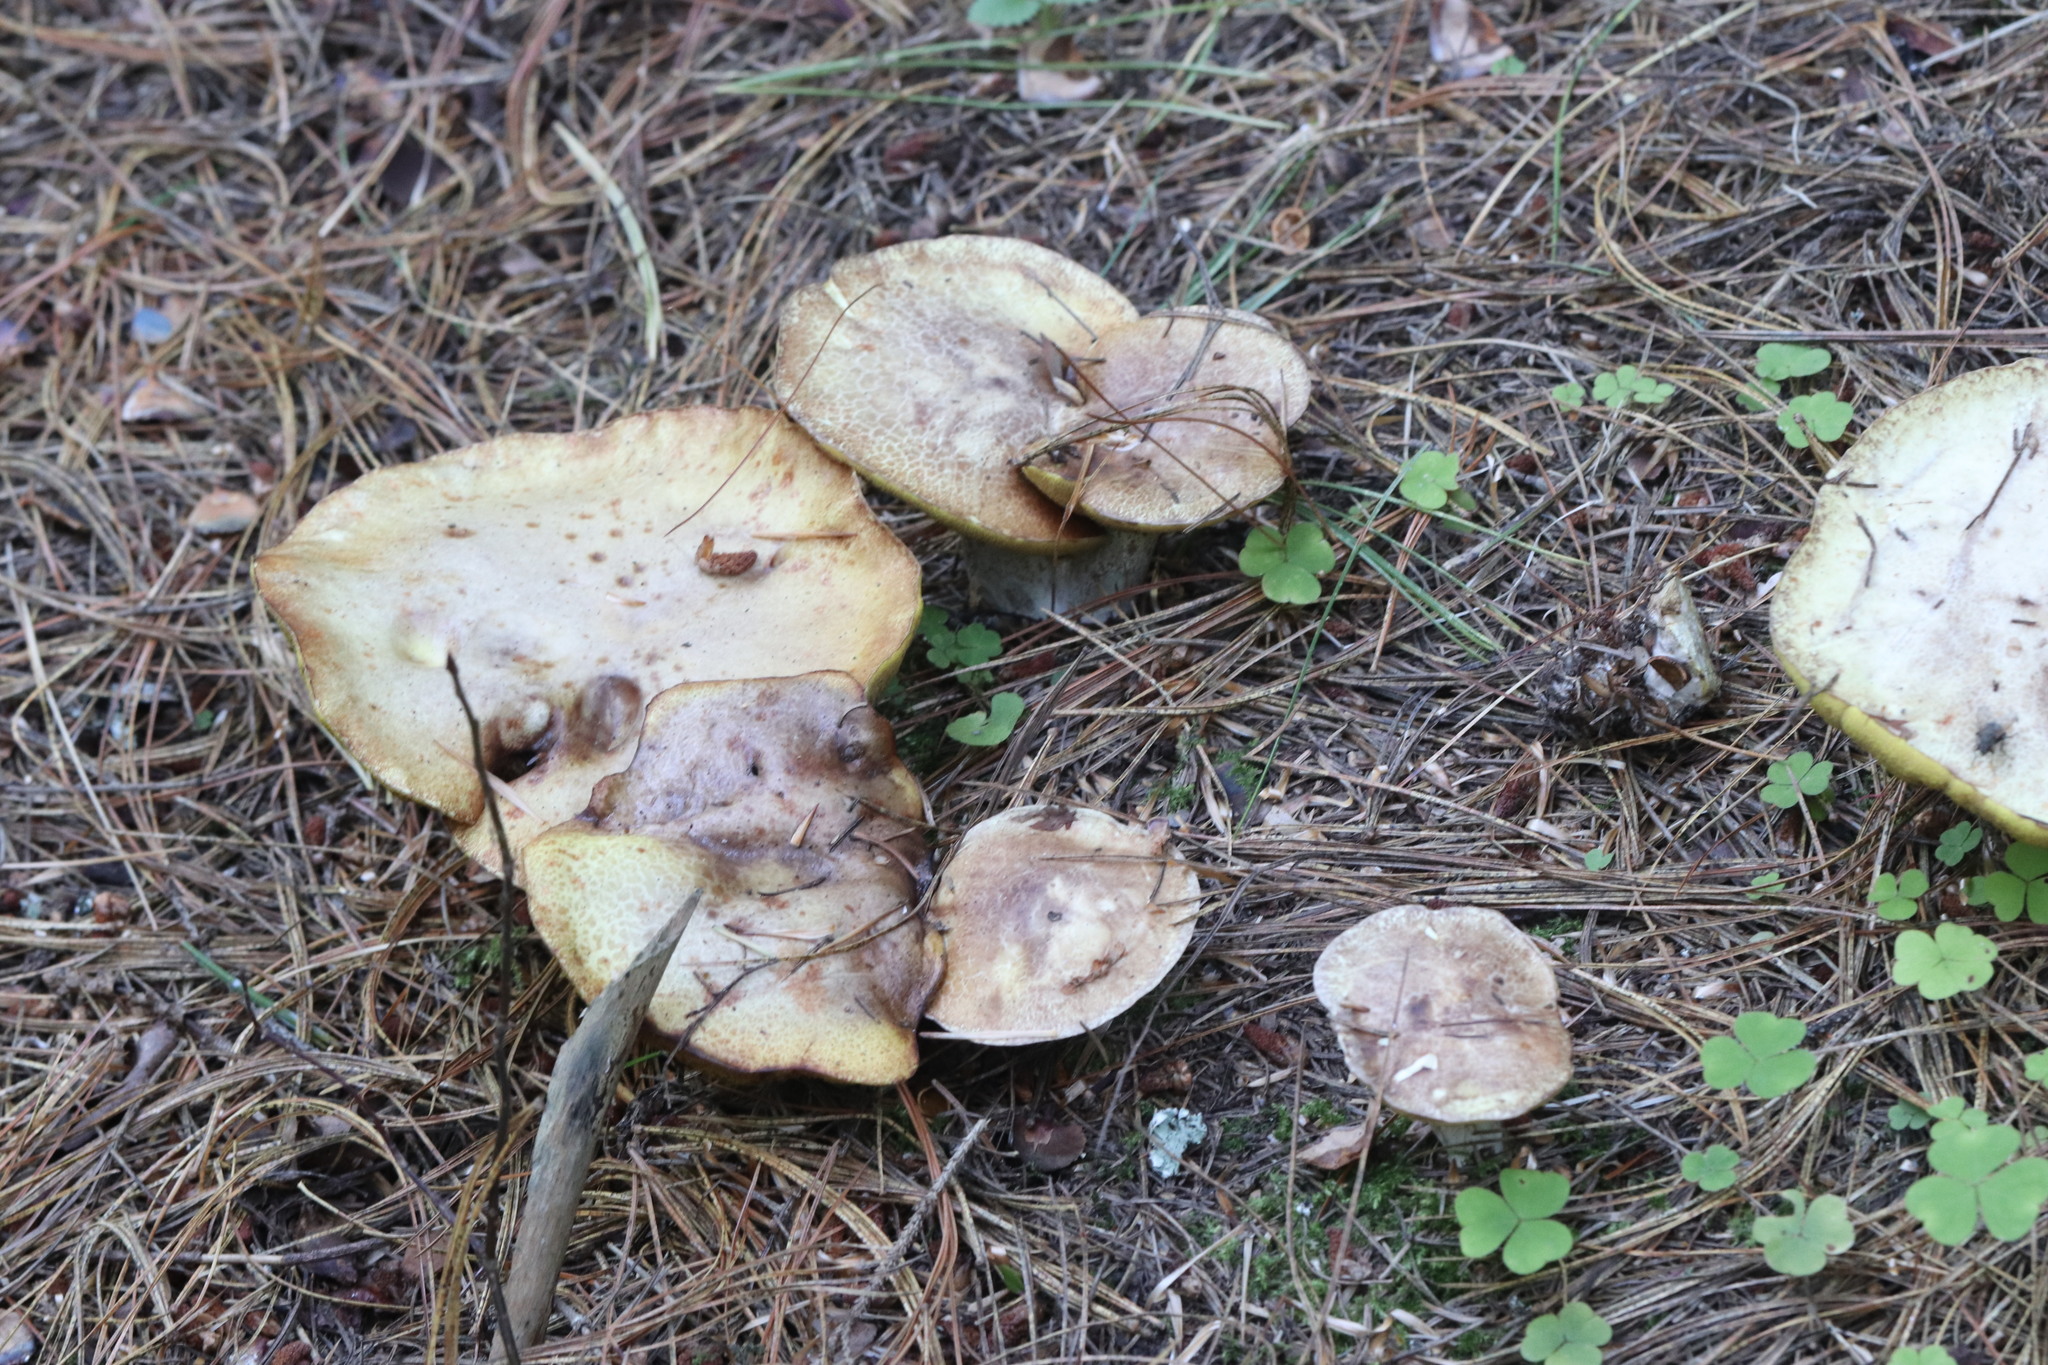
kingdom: Fungi
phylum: Basidiomycota
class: Agaricomycetes
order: Boletales
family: Suillaceae
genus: Suillus
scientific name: Suillus placidus
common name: Slippery white bolete
